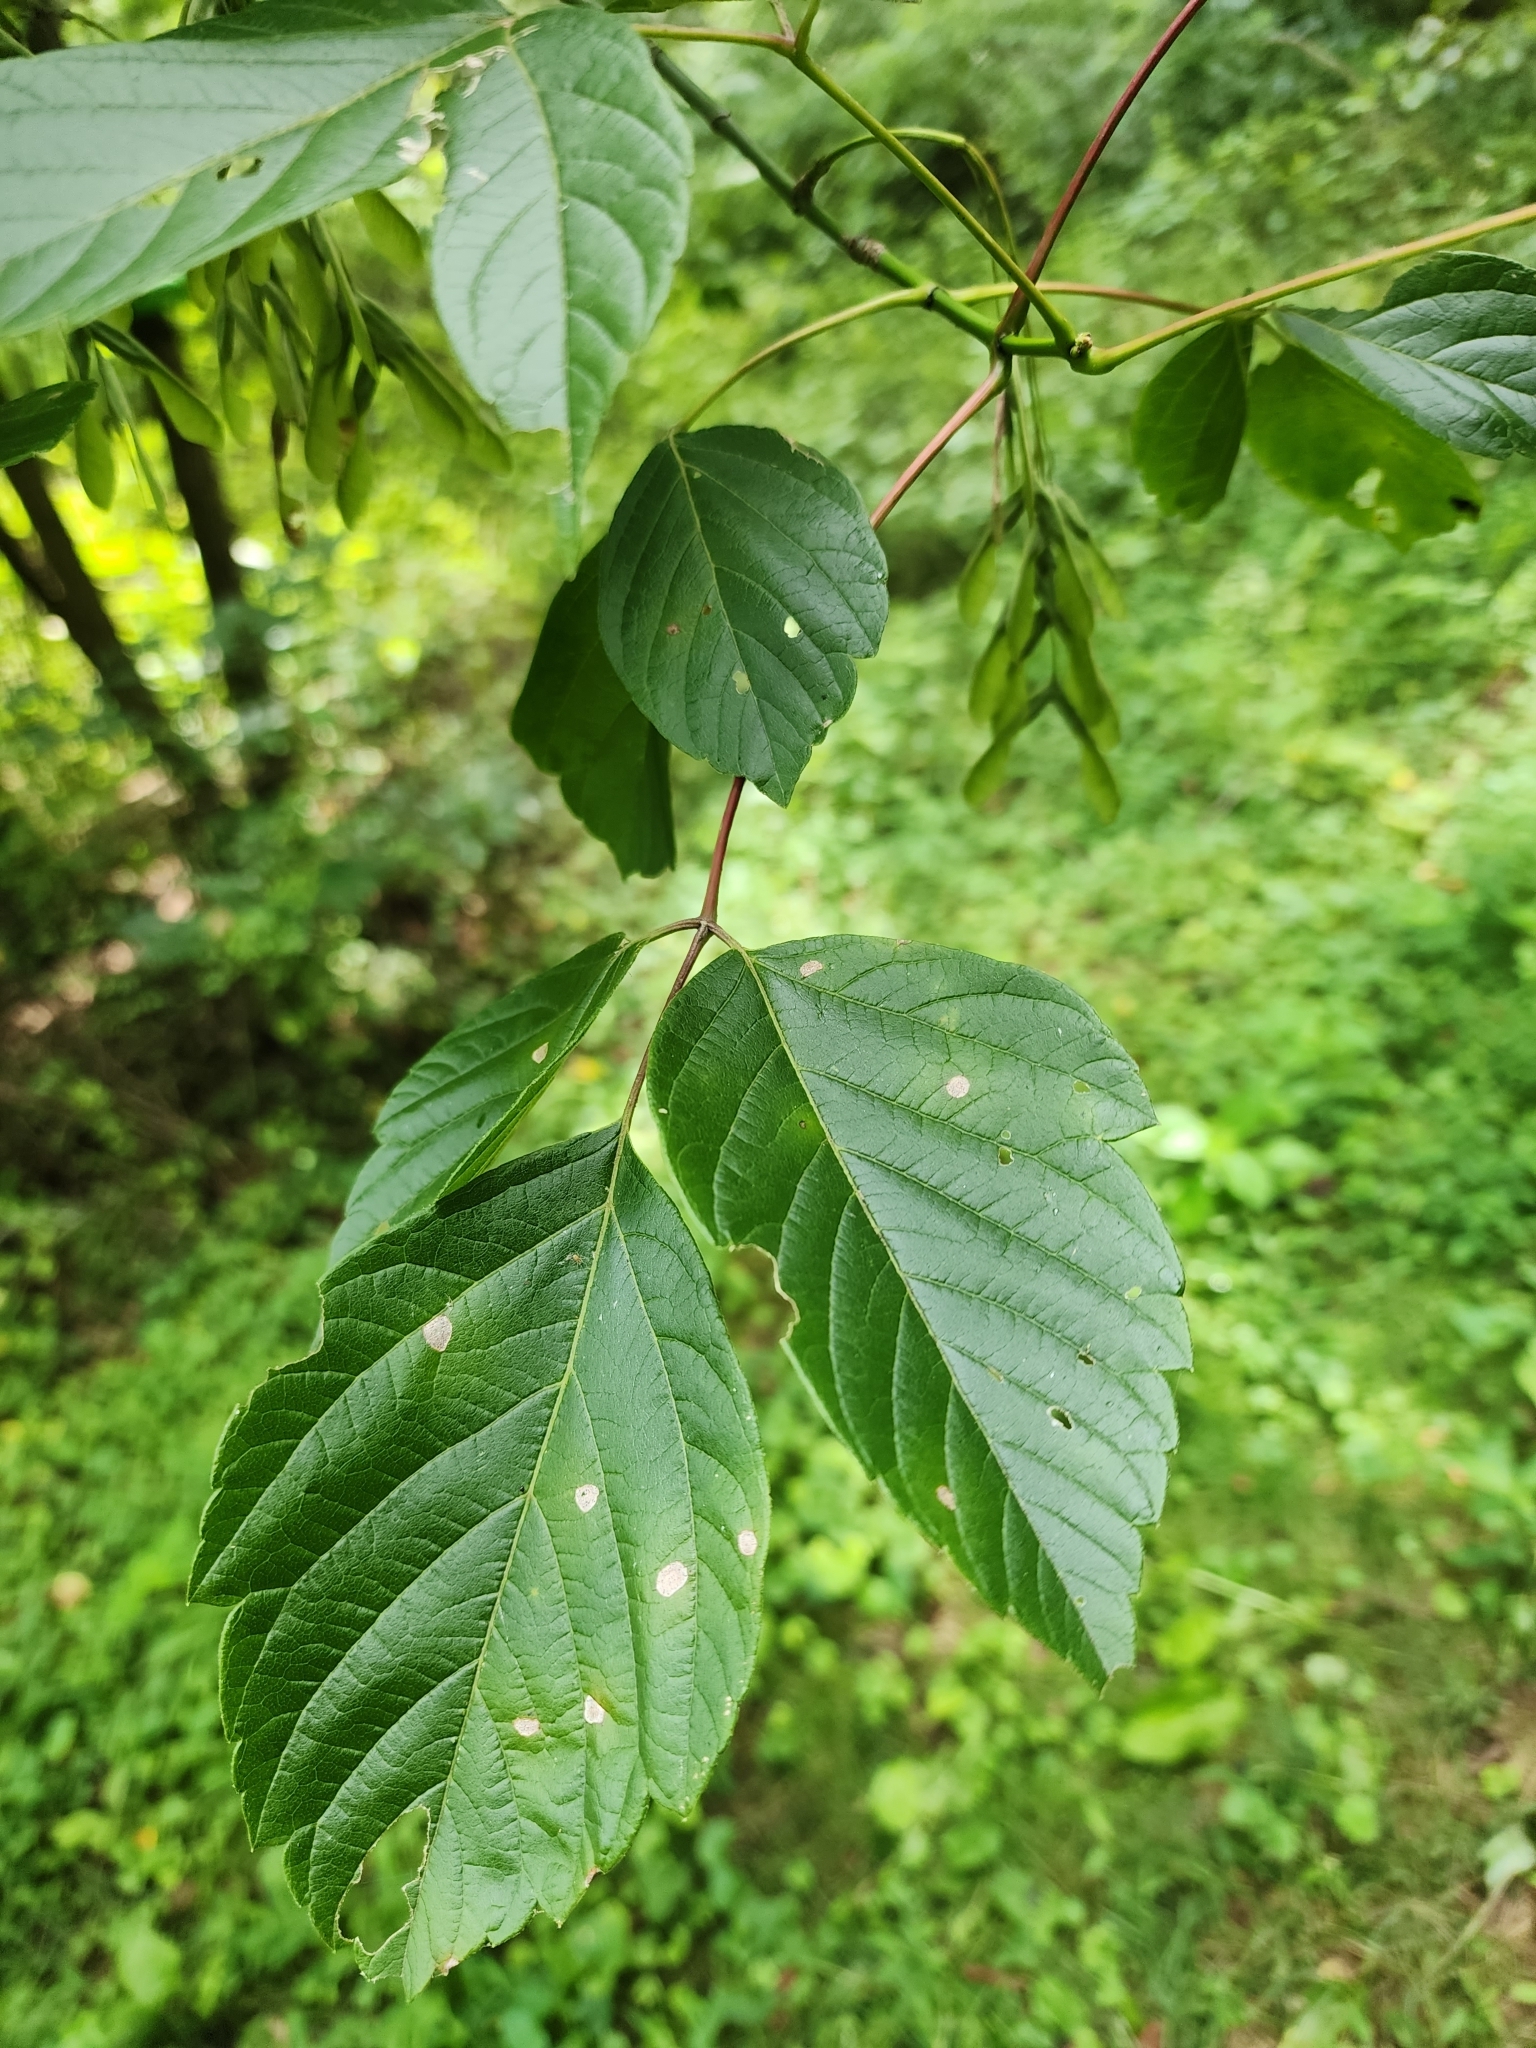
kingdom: Plantae
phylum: Tracheophyta
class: Magnoliopsida
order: Sapindales
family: Sapindaceae
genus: Acer
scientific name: Acer negundo
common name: Ashleaf maple
